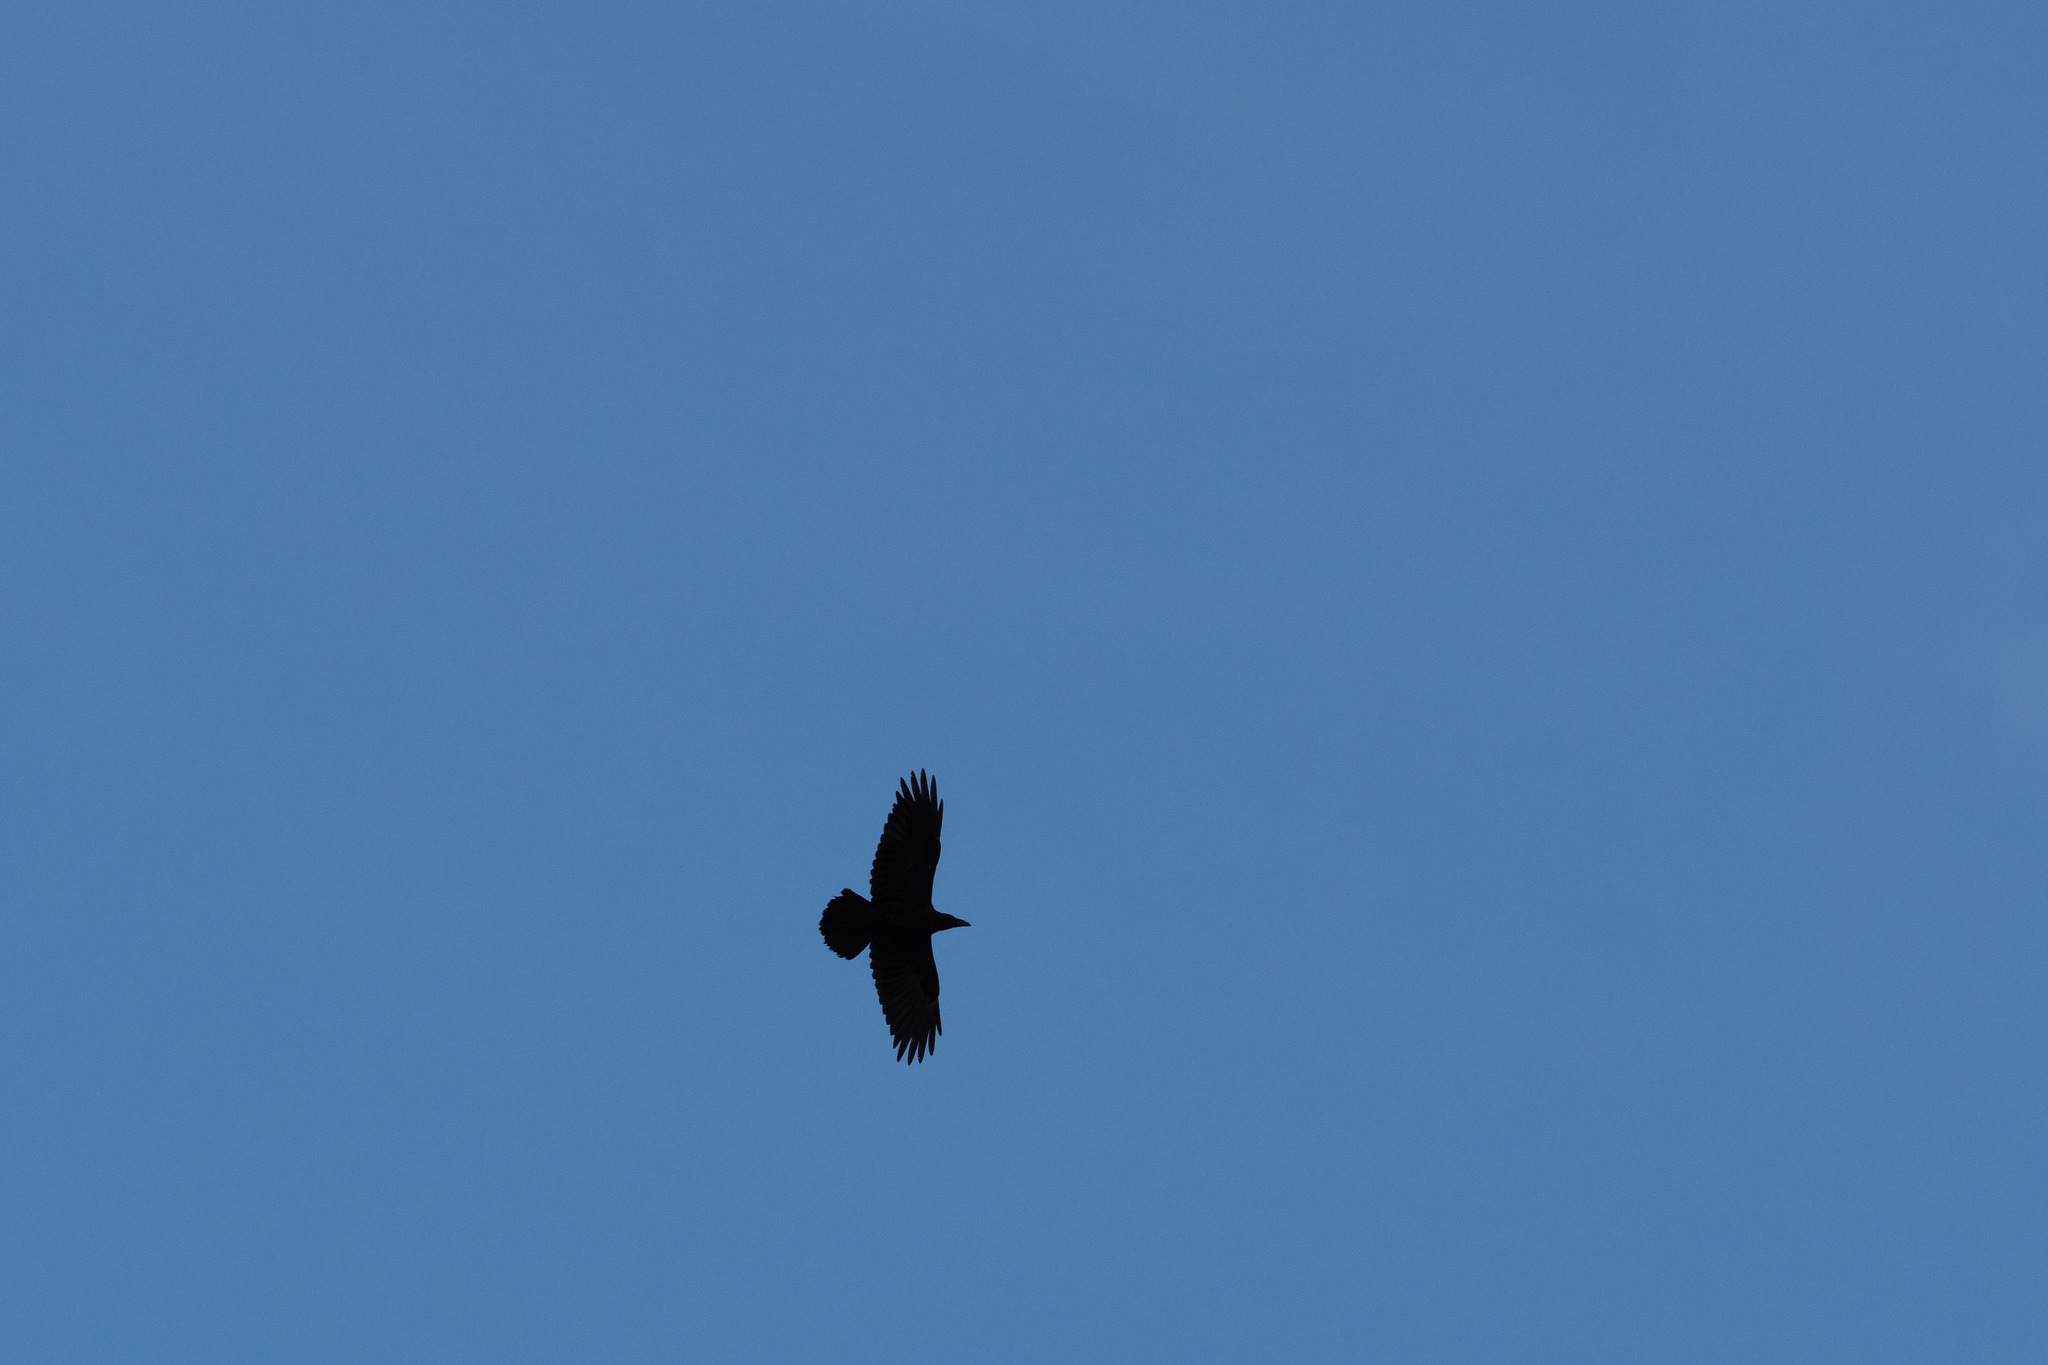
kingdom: Animalia
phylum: Chordata
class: Aves
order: Passeriformes
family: Corvidae
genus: Corvus
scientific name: Corvus corax
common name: Common raven
